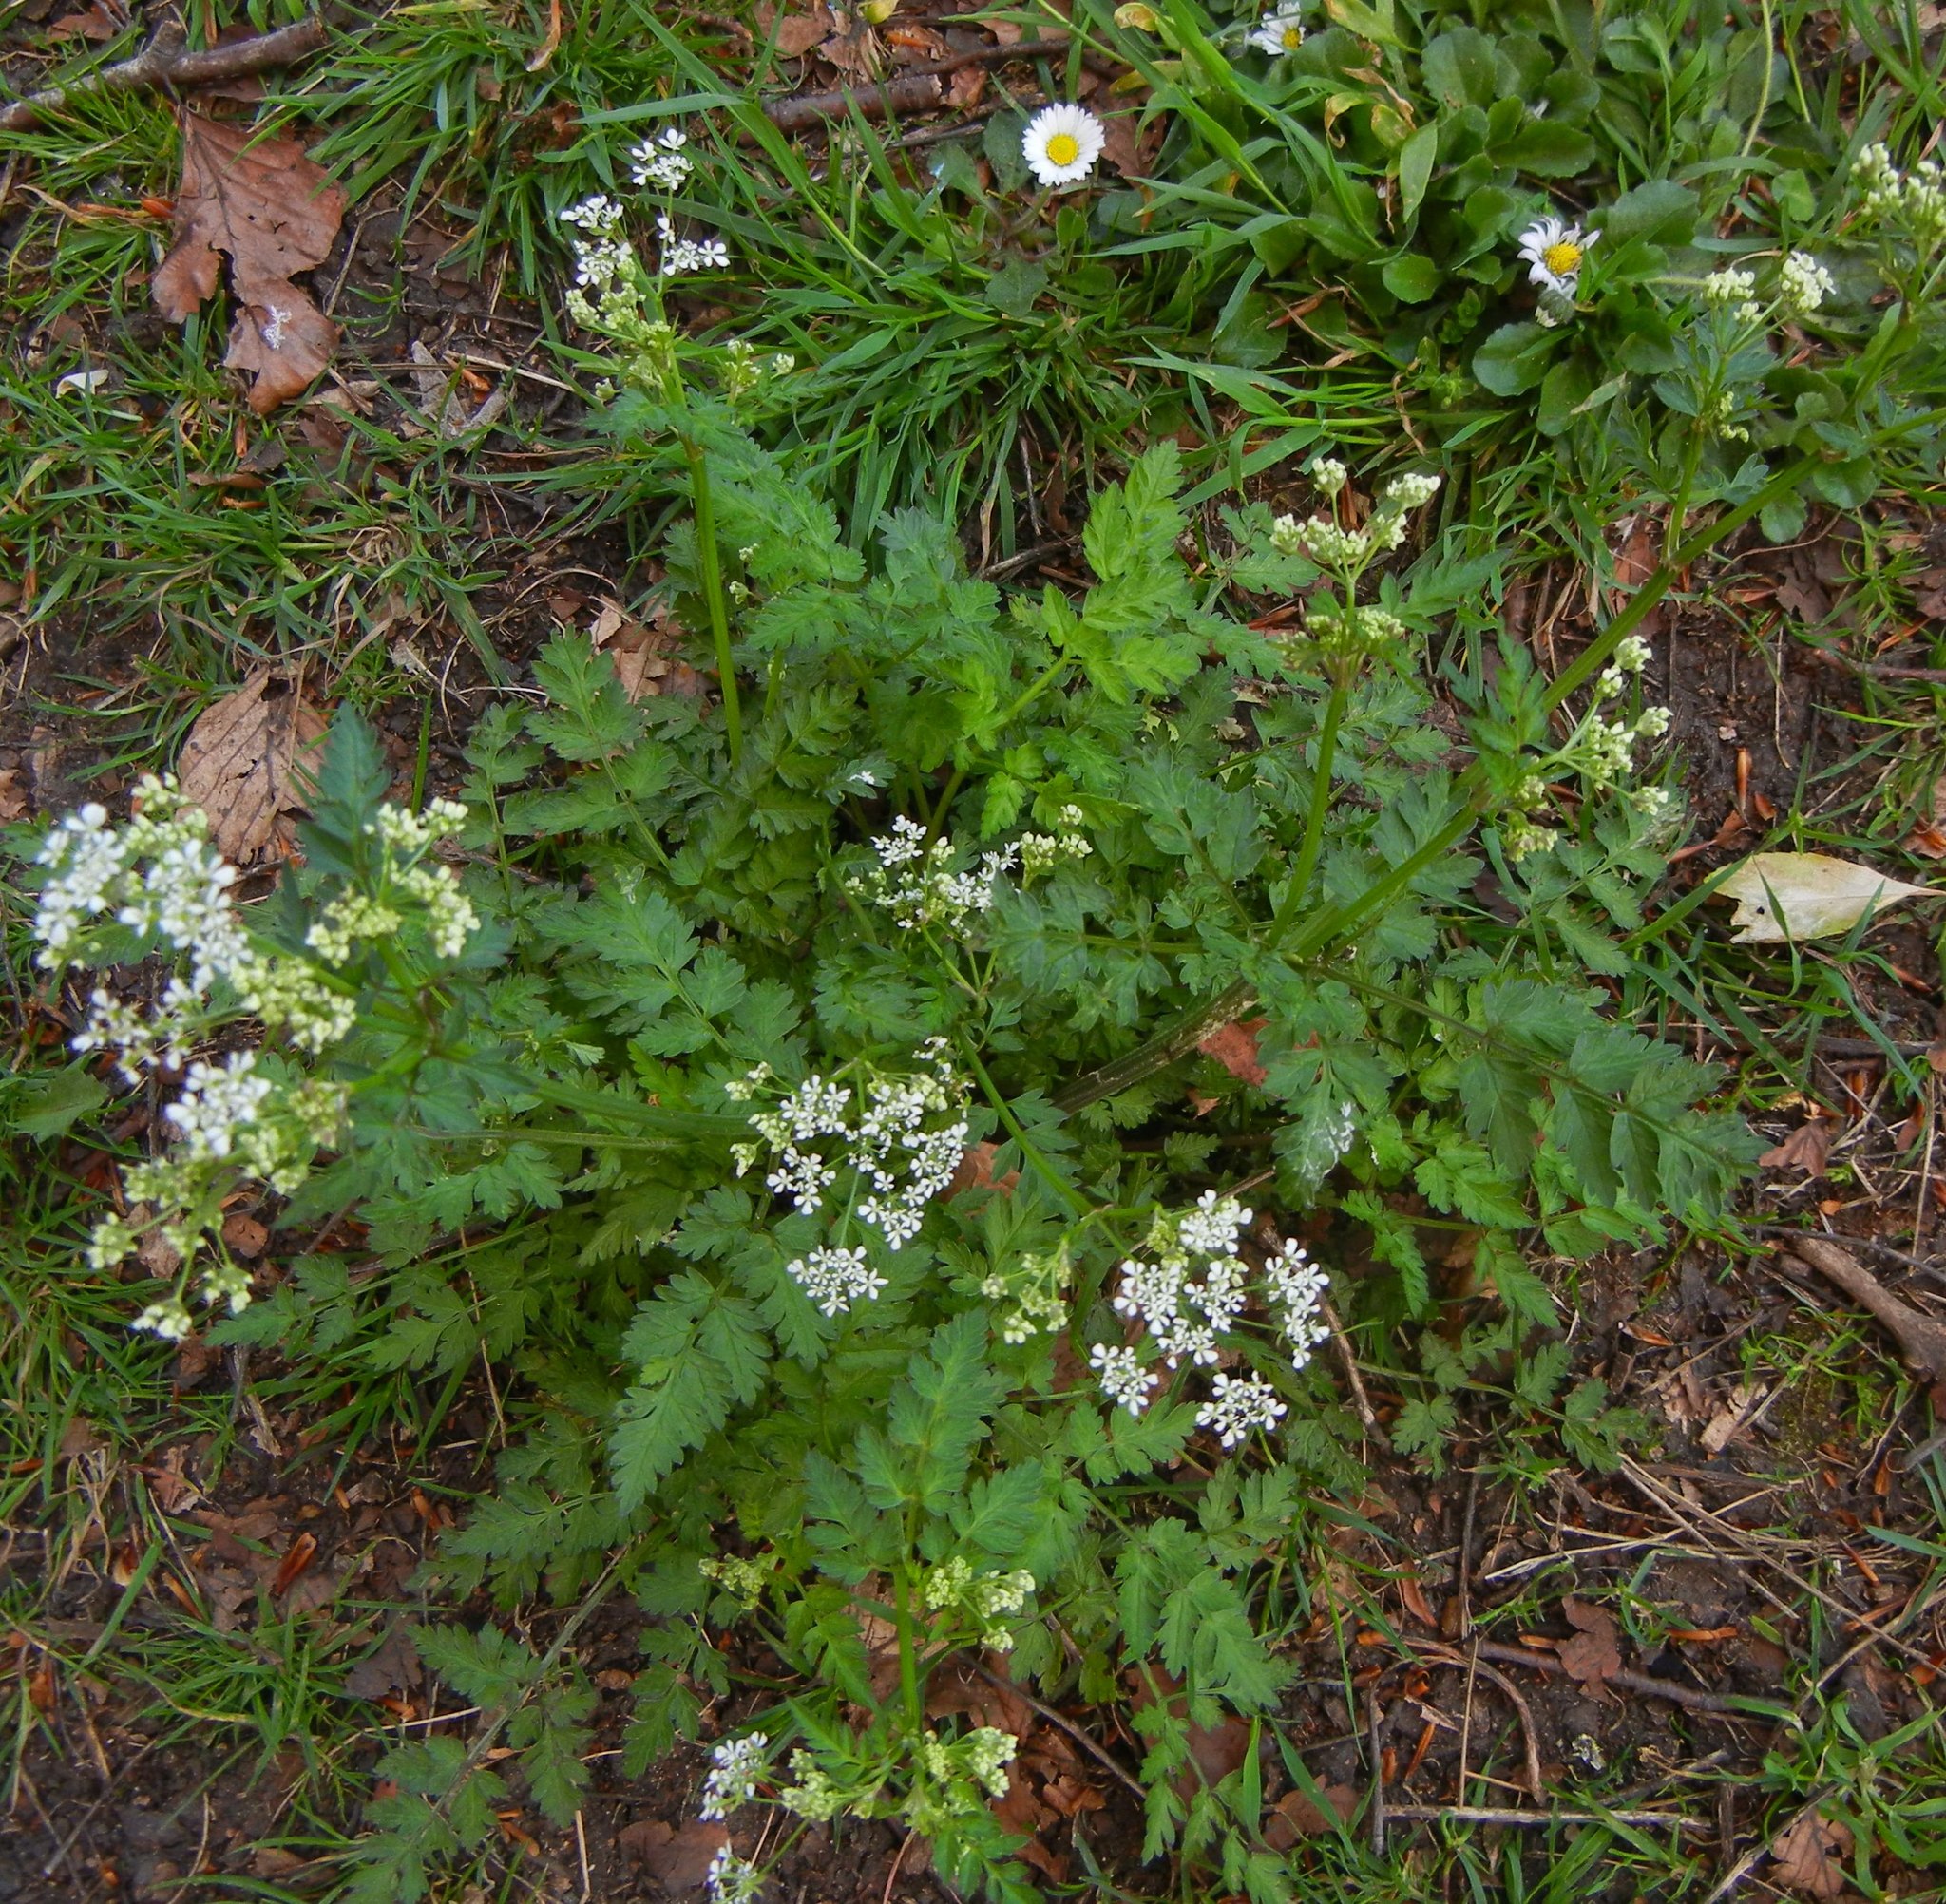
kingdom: Plantae
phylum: Tracheophyta
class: Magnoliopsida
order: Apiales
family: Apiaceae
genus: Anthriscus
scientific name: Anthriscus sylvestris
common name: Cow parsley
